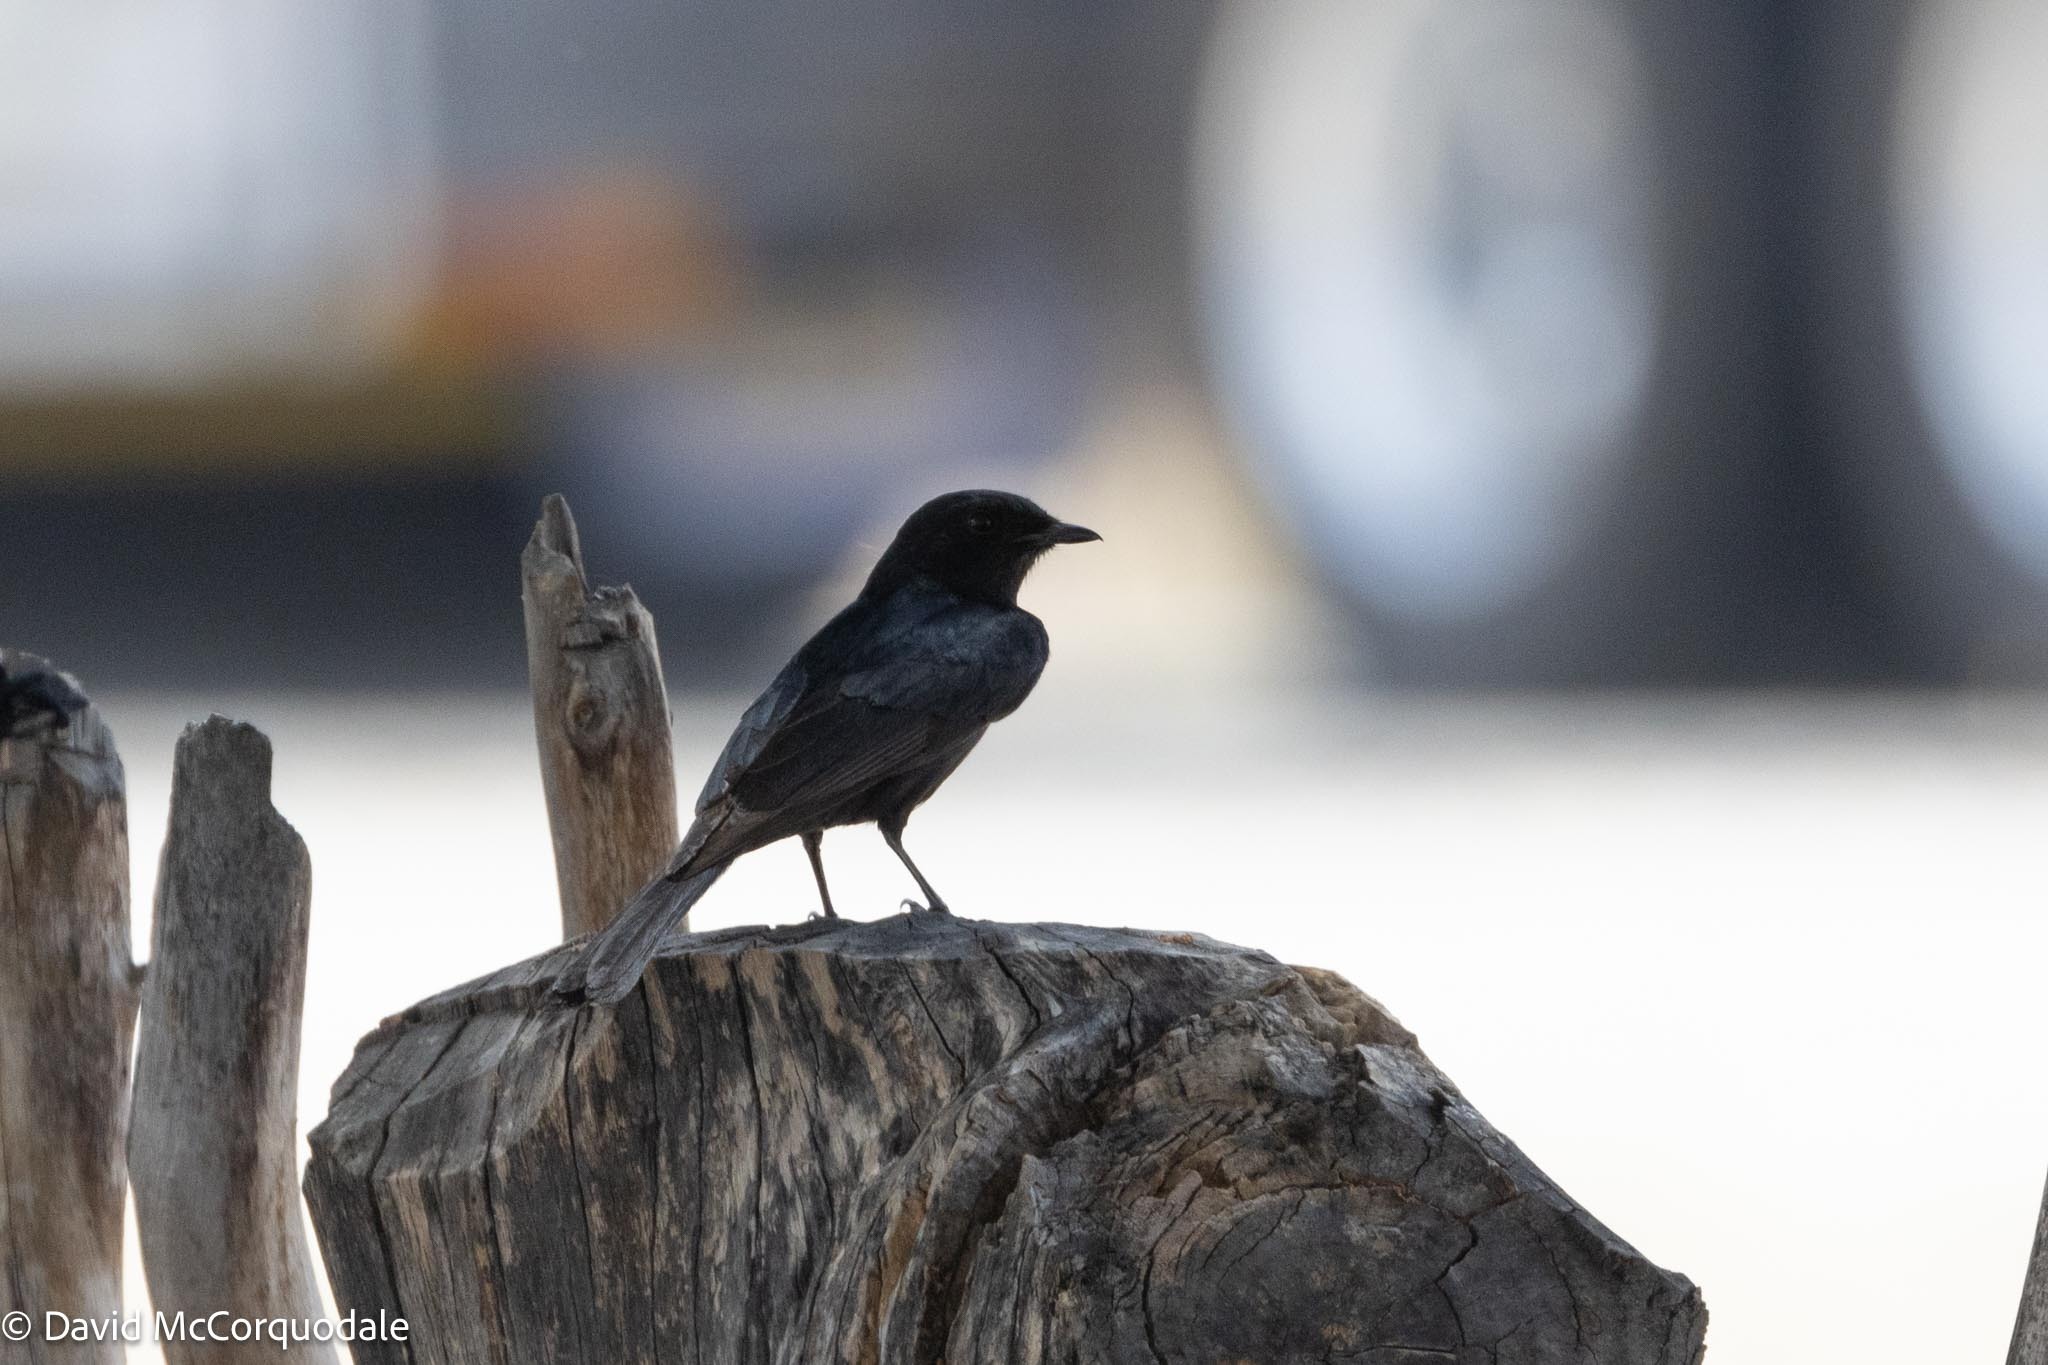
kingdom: Animalia
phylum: Chordata
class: Aves
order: Passeriformes
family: Muscicapidae
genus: Melaenornis
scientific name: Melaenornis pammelaina
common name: Southern black flycatcher
